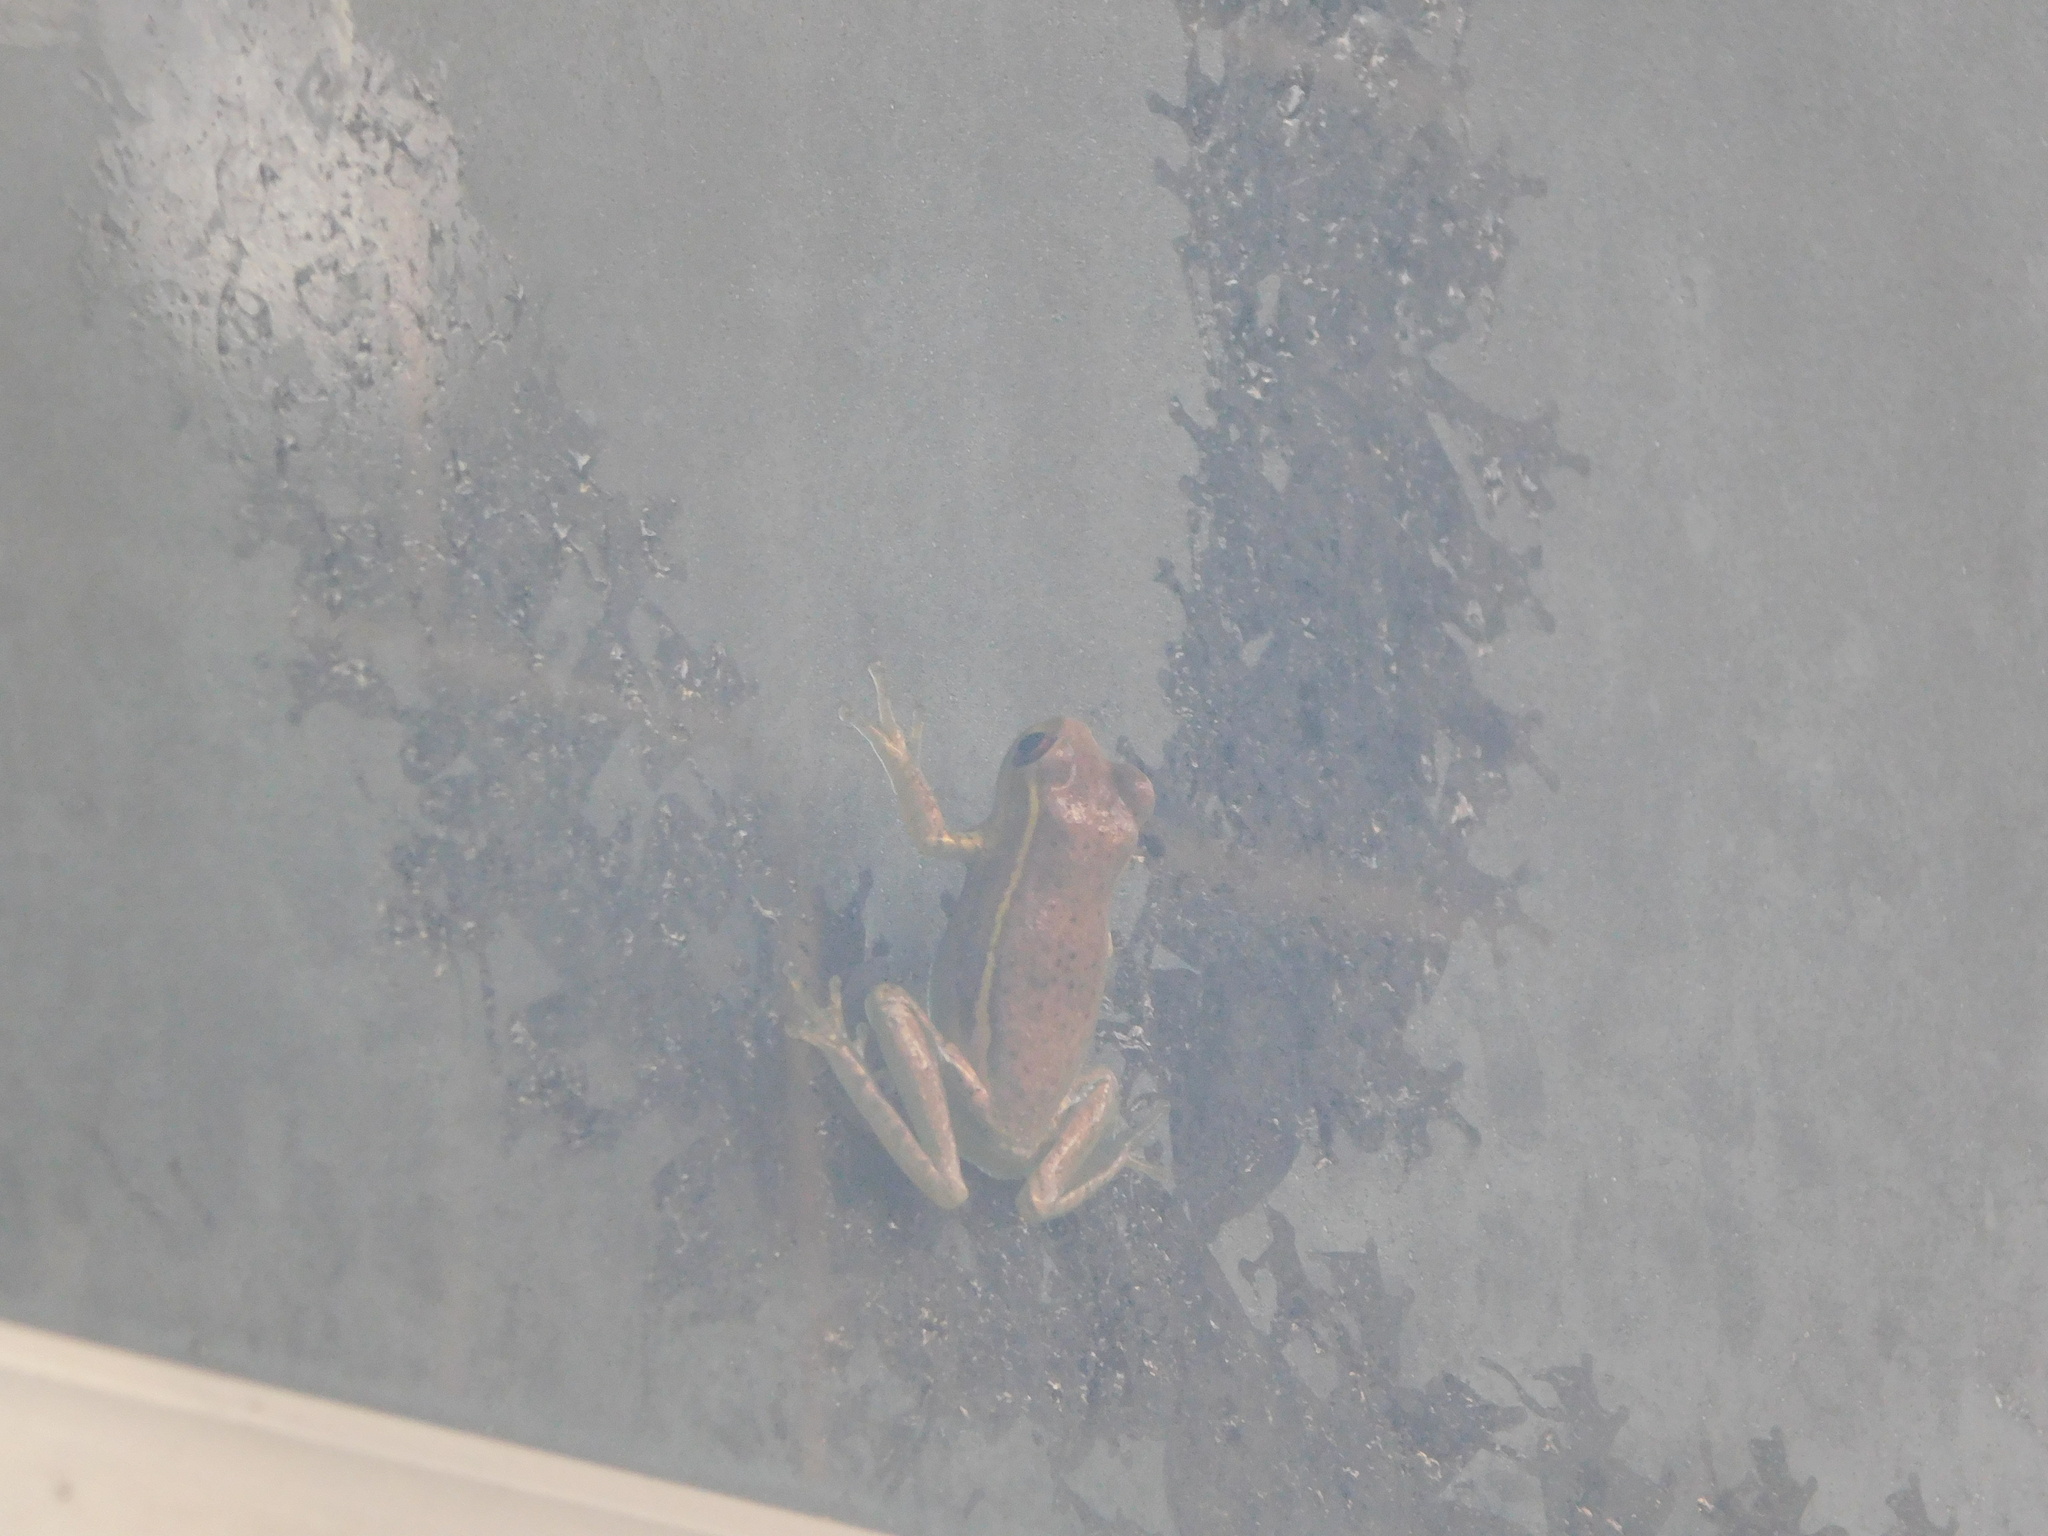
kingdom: Animalia
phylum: Chordata
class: Amphibia
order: Anura
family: Hylidae
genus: Osteopilus
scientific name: Osteopilus septentrionalis
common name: Cuban treefrog
